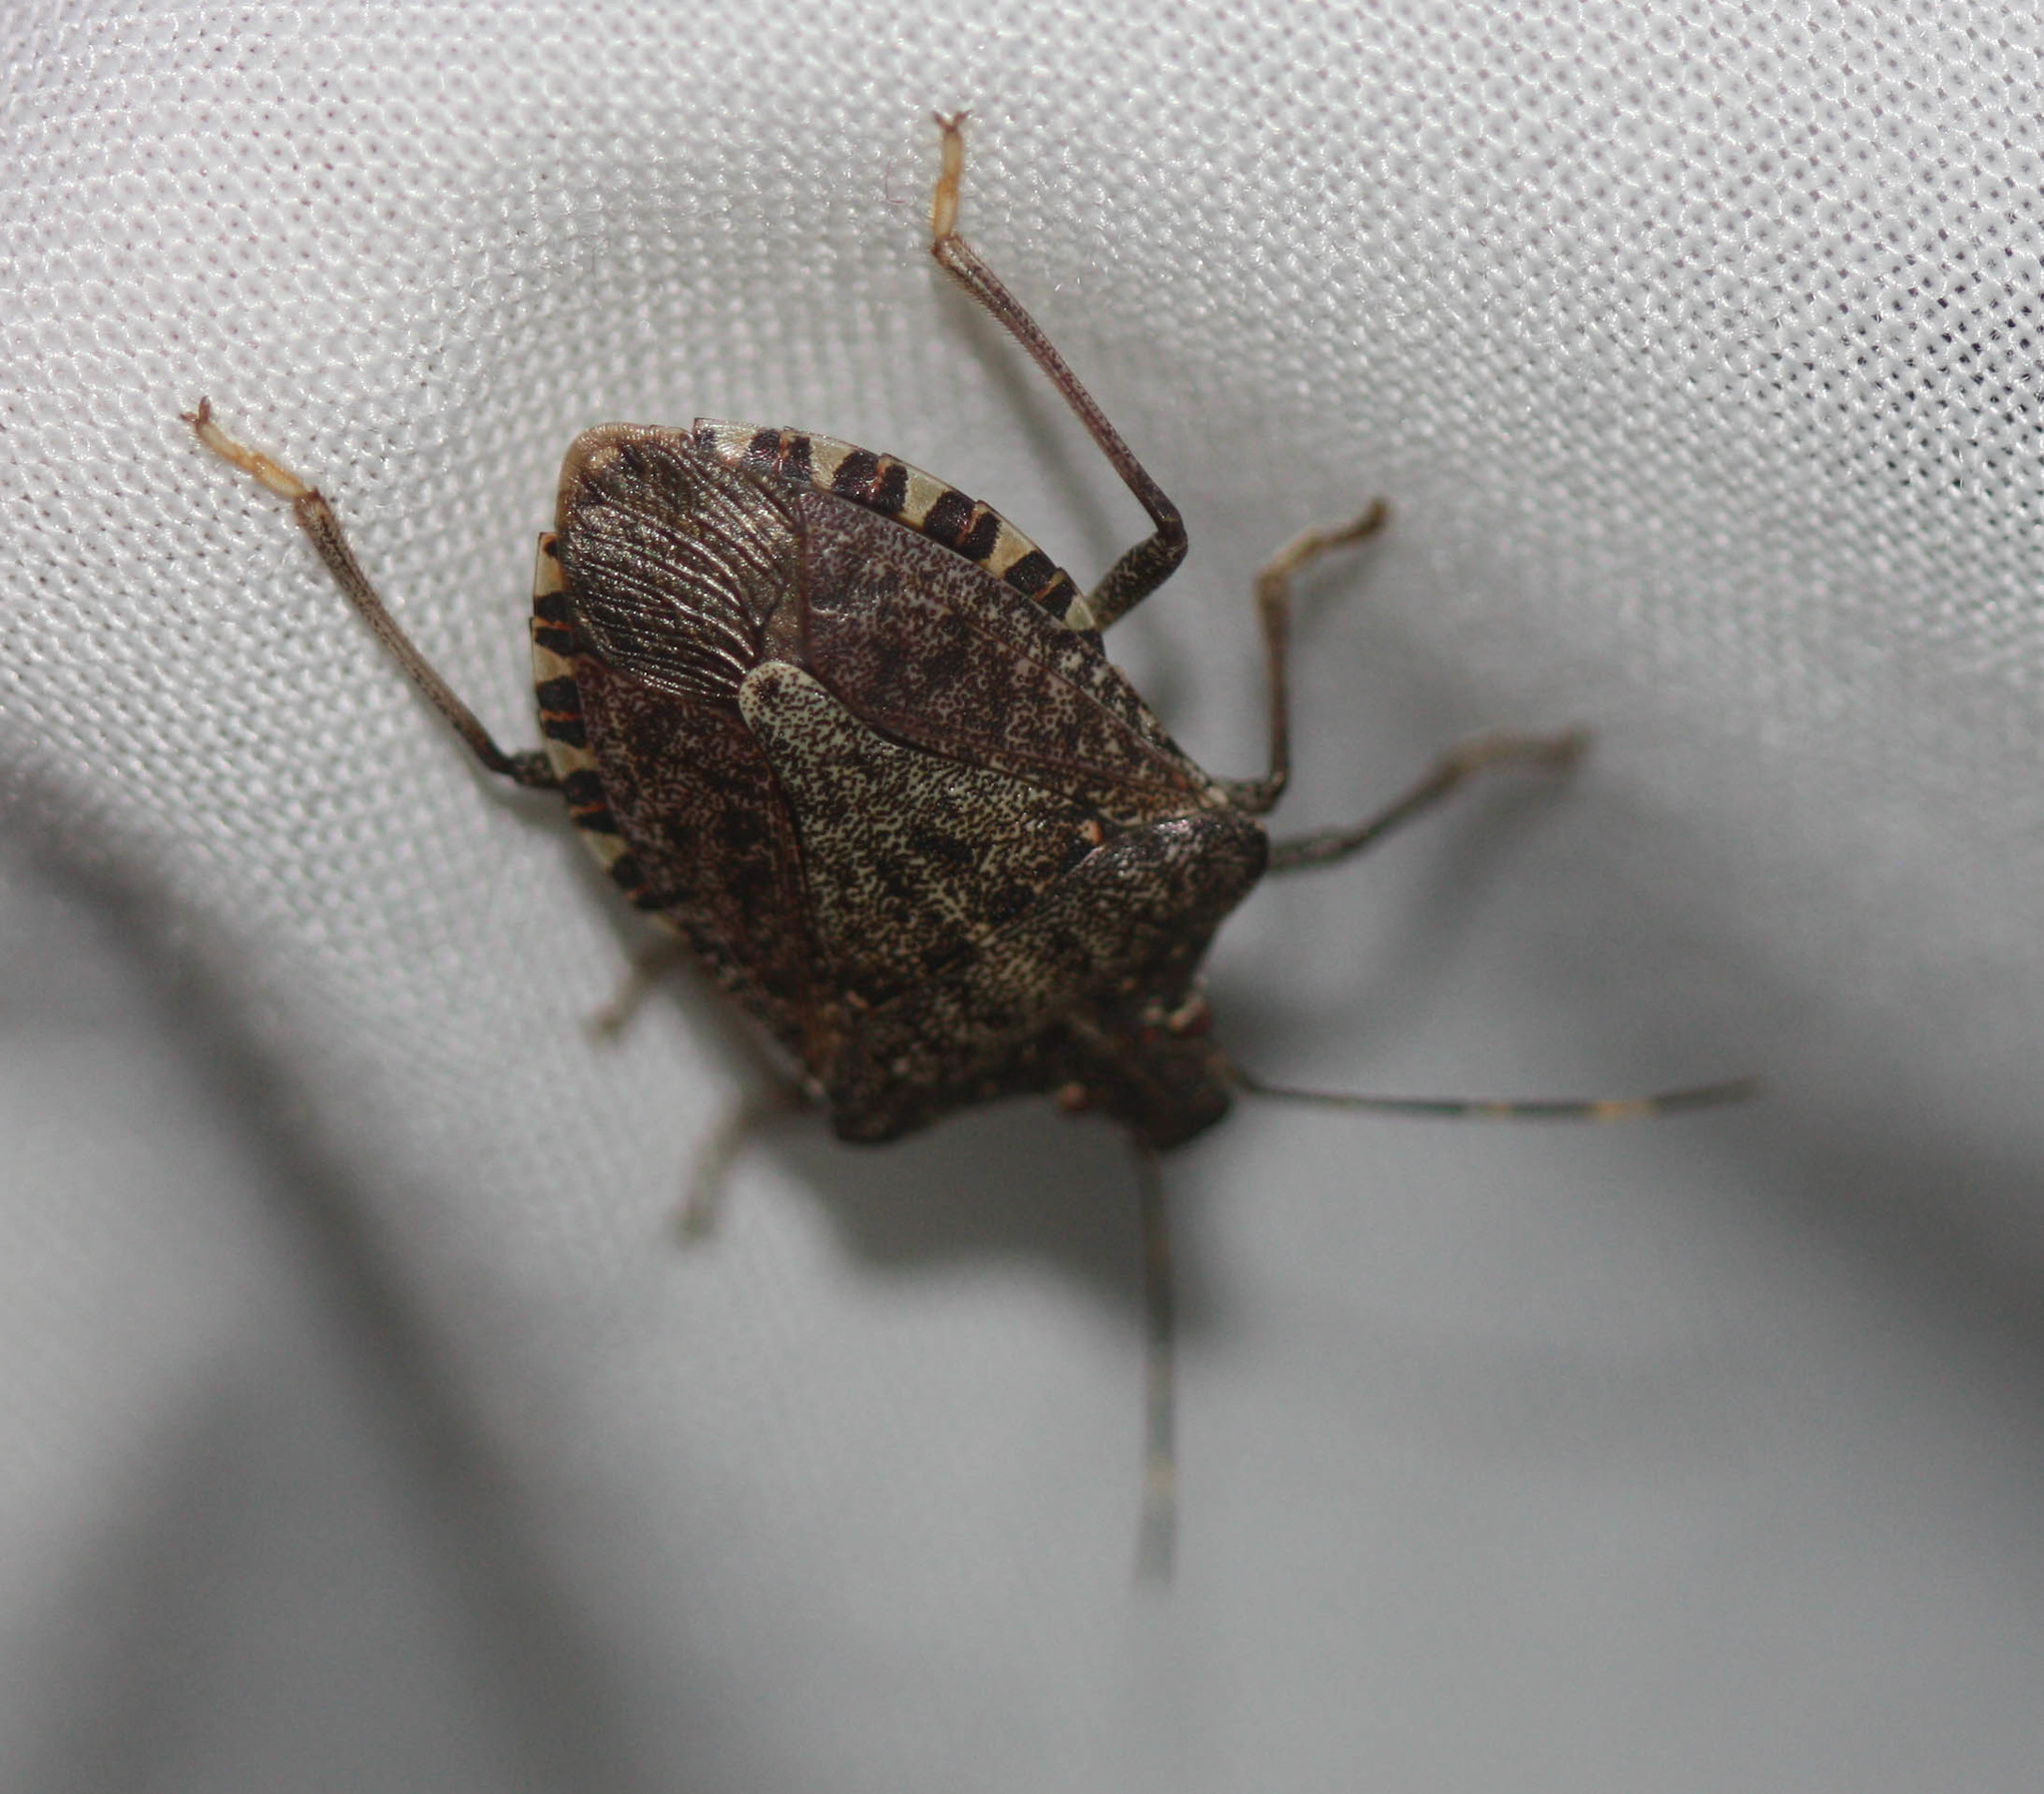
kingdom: Animalia
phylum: Arthropoda
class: Insecta
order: Hemiptera
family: Pentatomidae
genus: Halyomorpha
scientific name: Halyomorpha halys
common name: Brown marmorated stink bug
